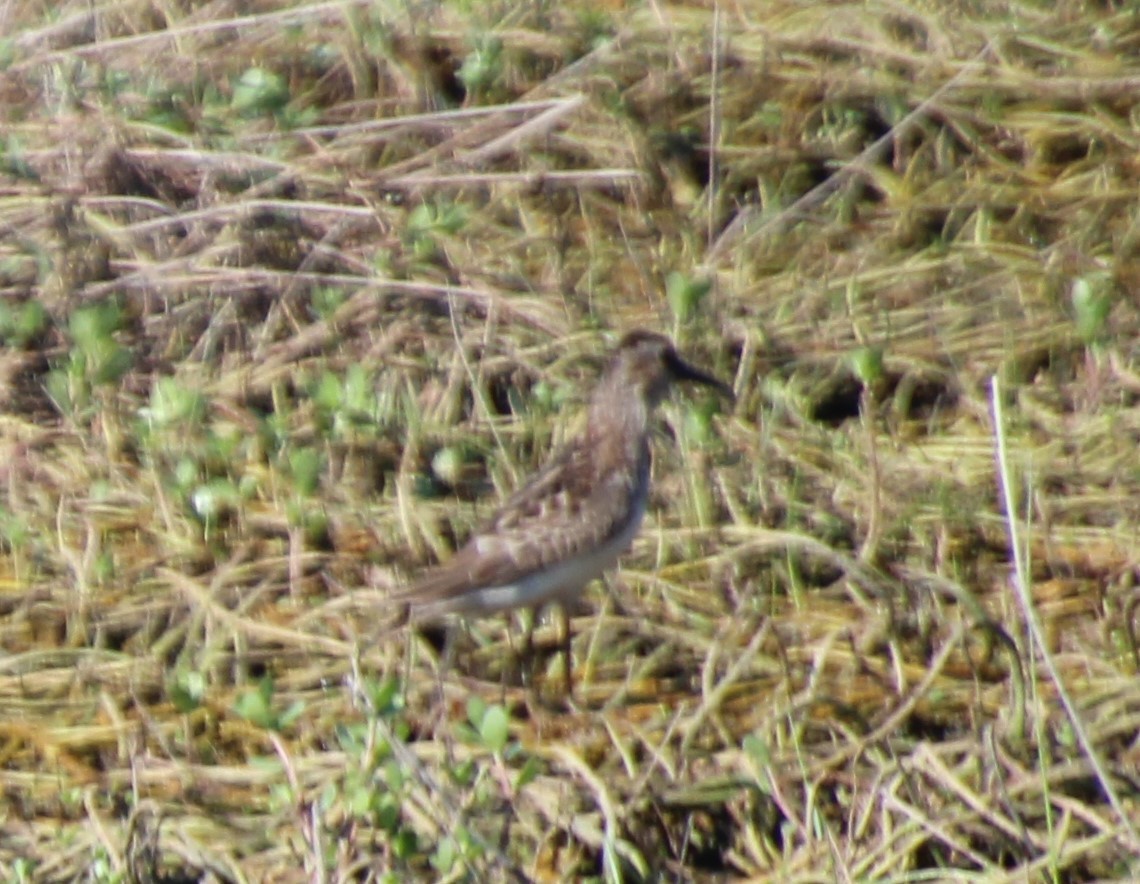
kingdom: Animalia
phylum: Chordata
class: Aves
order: Charadriiformes
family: Scolopacidae
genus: Calidris
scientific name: Calidris minutilla
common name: Least sandpiper
